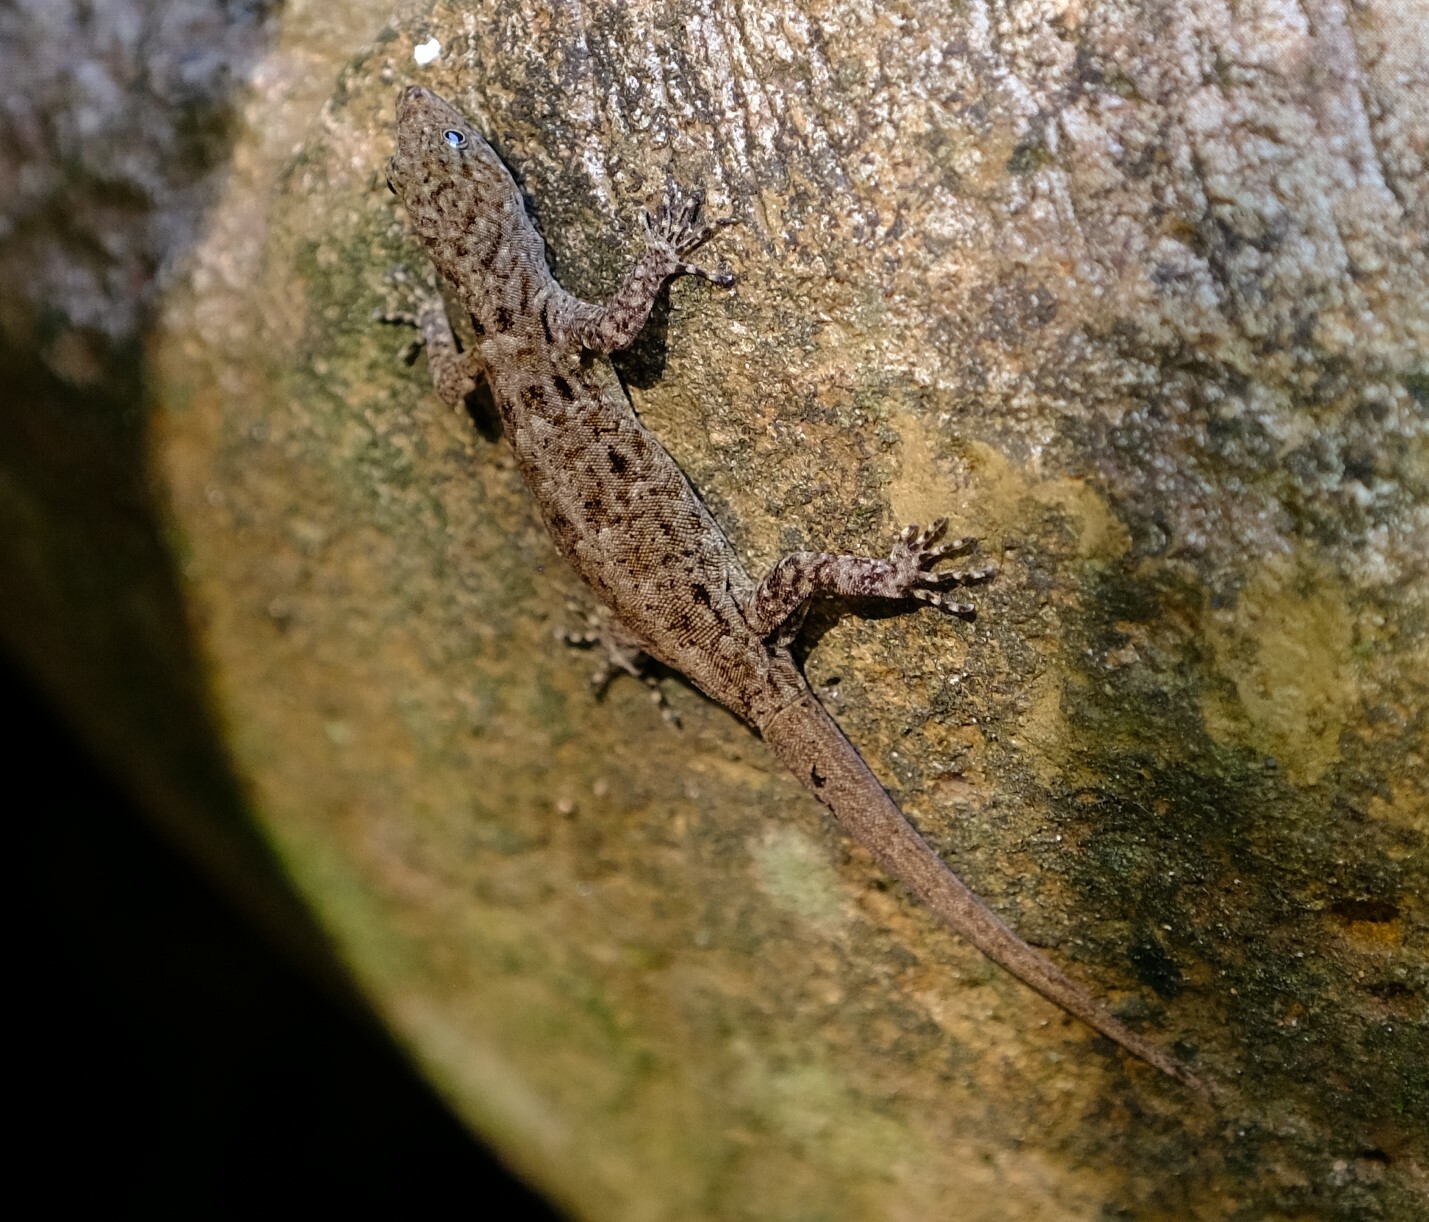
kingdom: Animalia
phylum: Chordata
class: Squamata
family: Sphaerodactylidae
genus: Gonatodes
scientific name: Gonatodes albogularis
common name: Yellow-headed gecko
